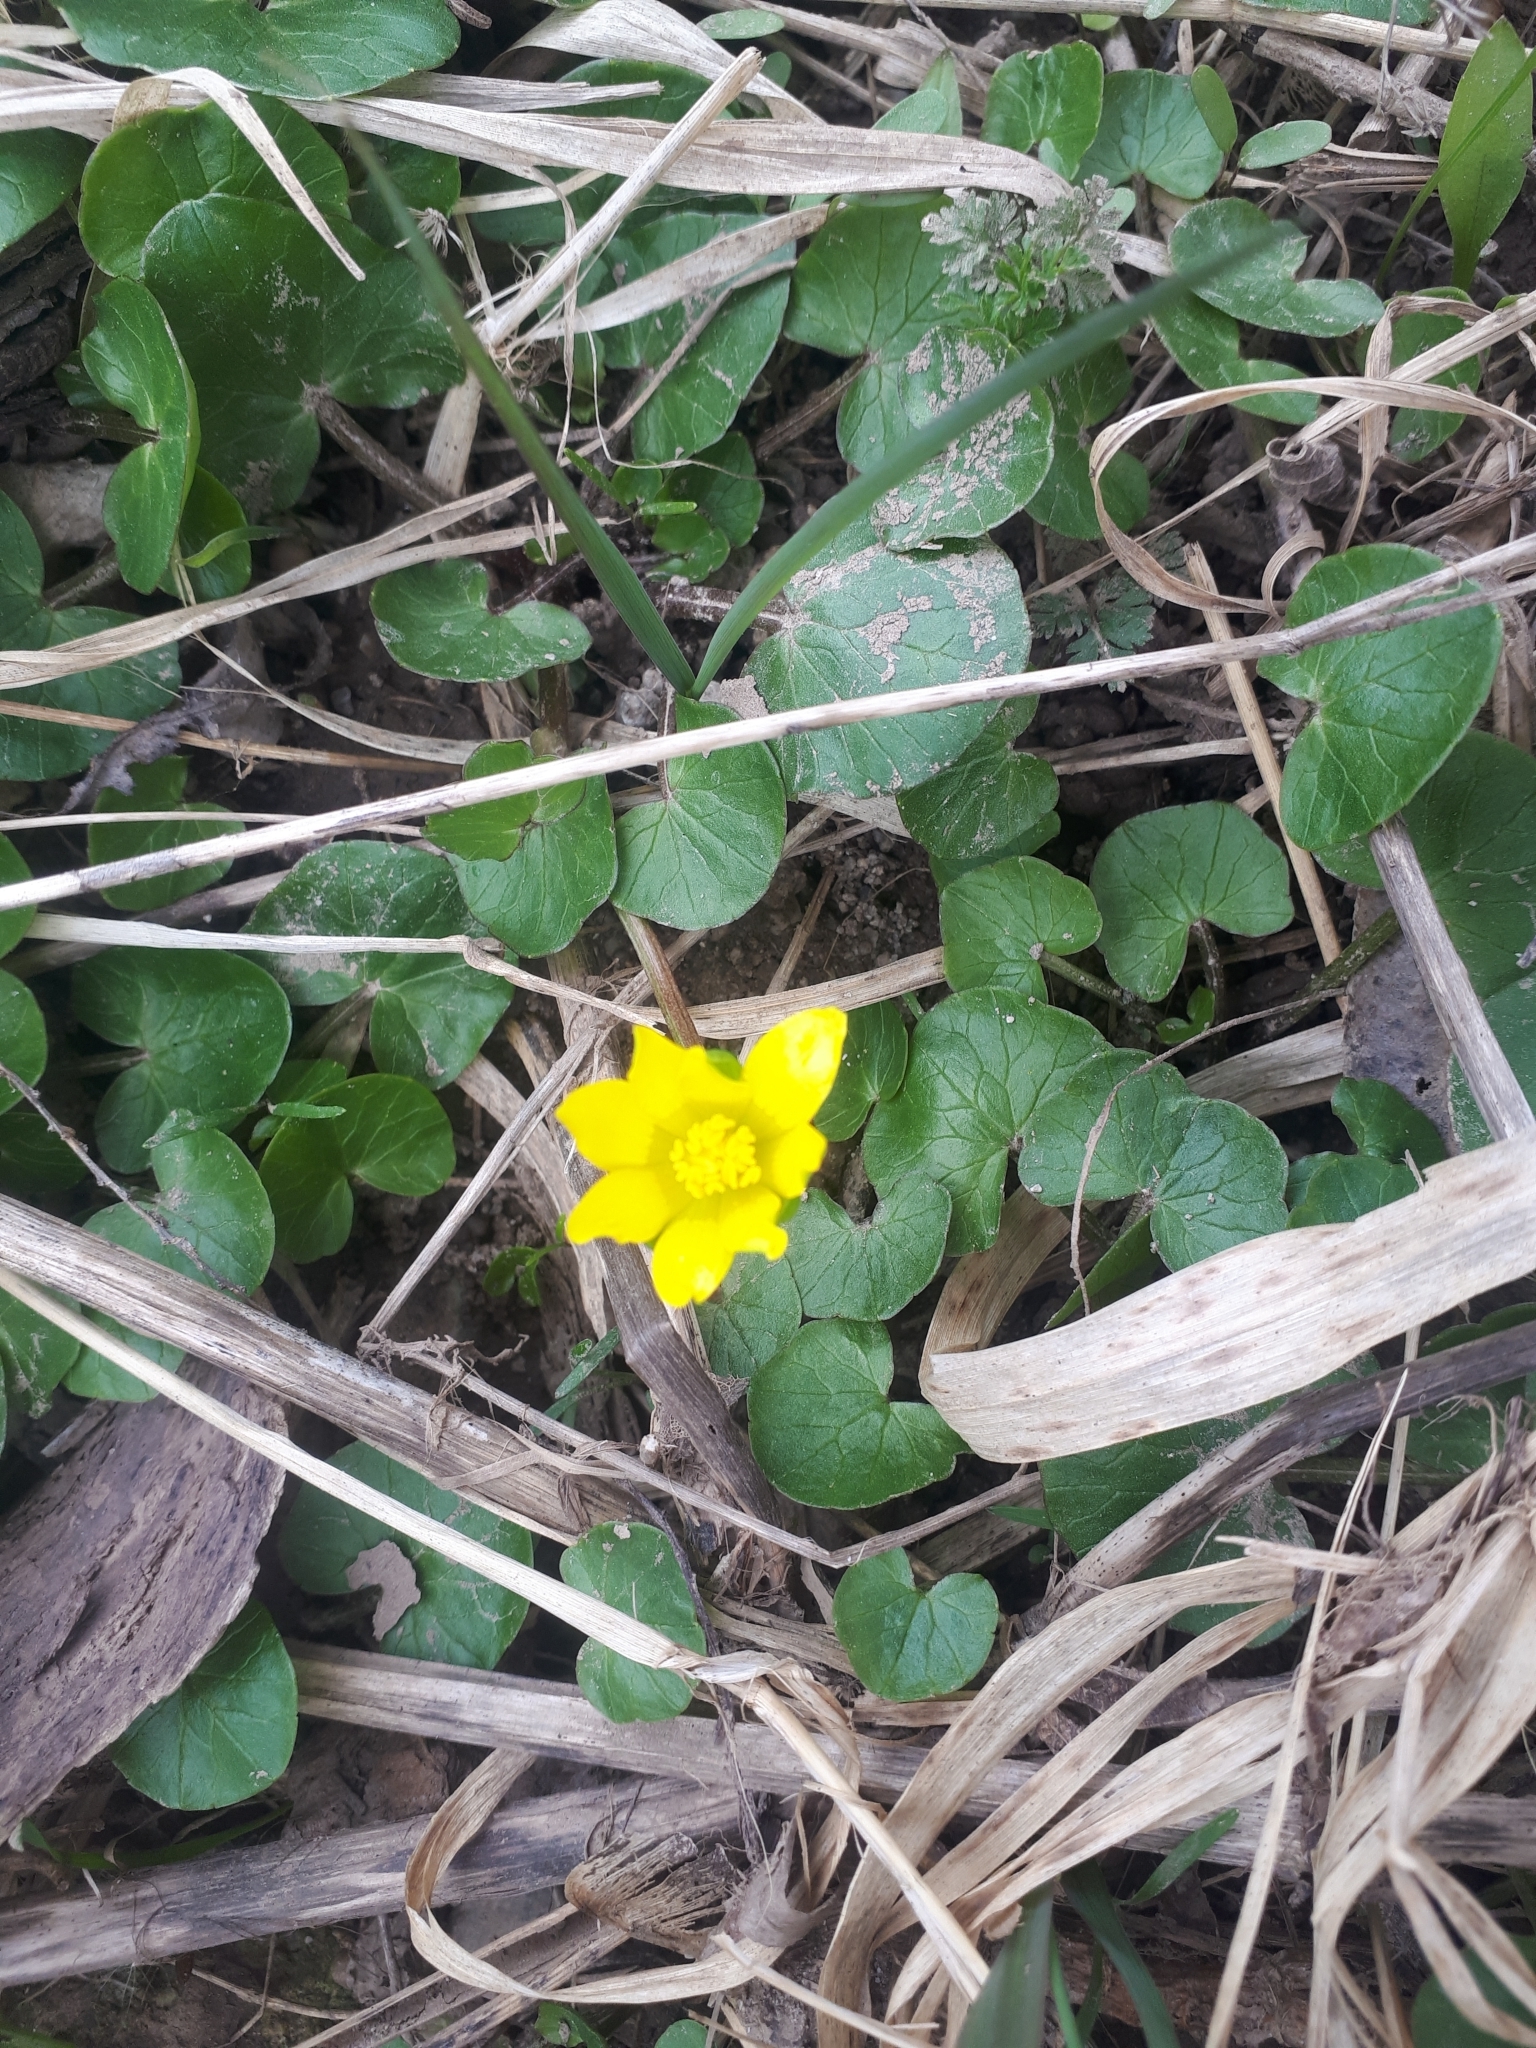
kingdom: Plantae
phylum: Tracheophyta
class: Magnoliopsida
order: Ranunculales
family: Ranunculaceae
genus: Ficaria
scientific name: Ficaria verna
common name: Lesser celandine
